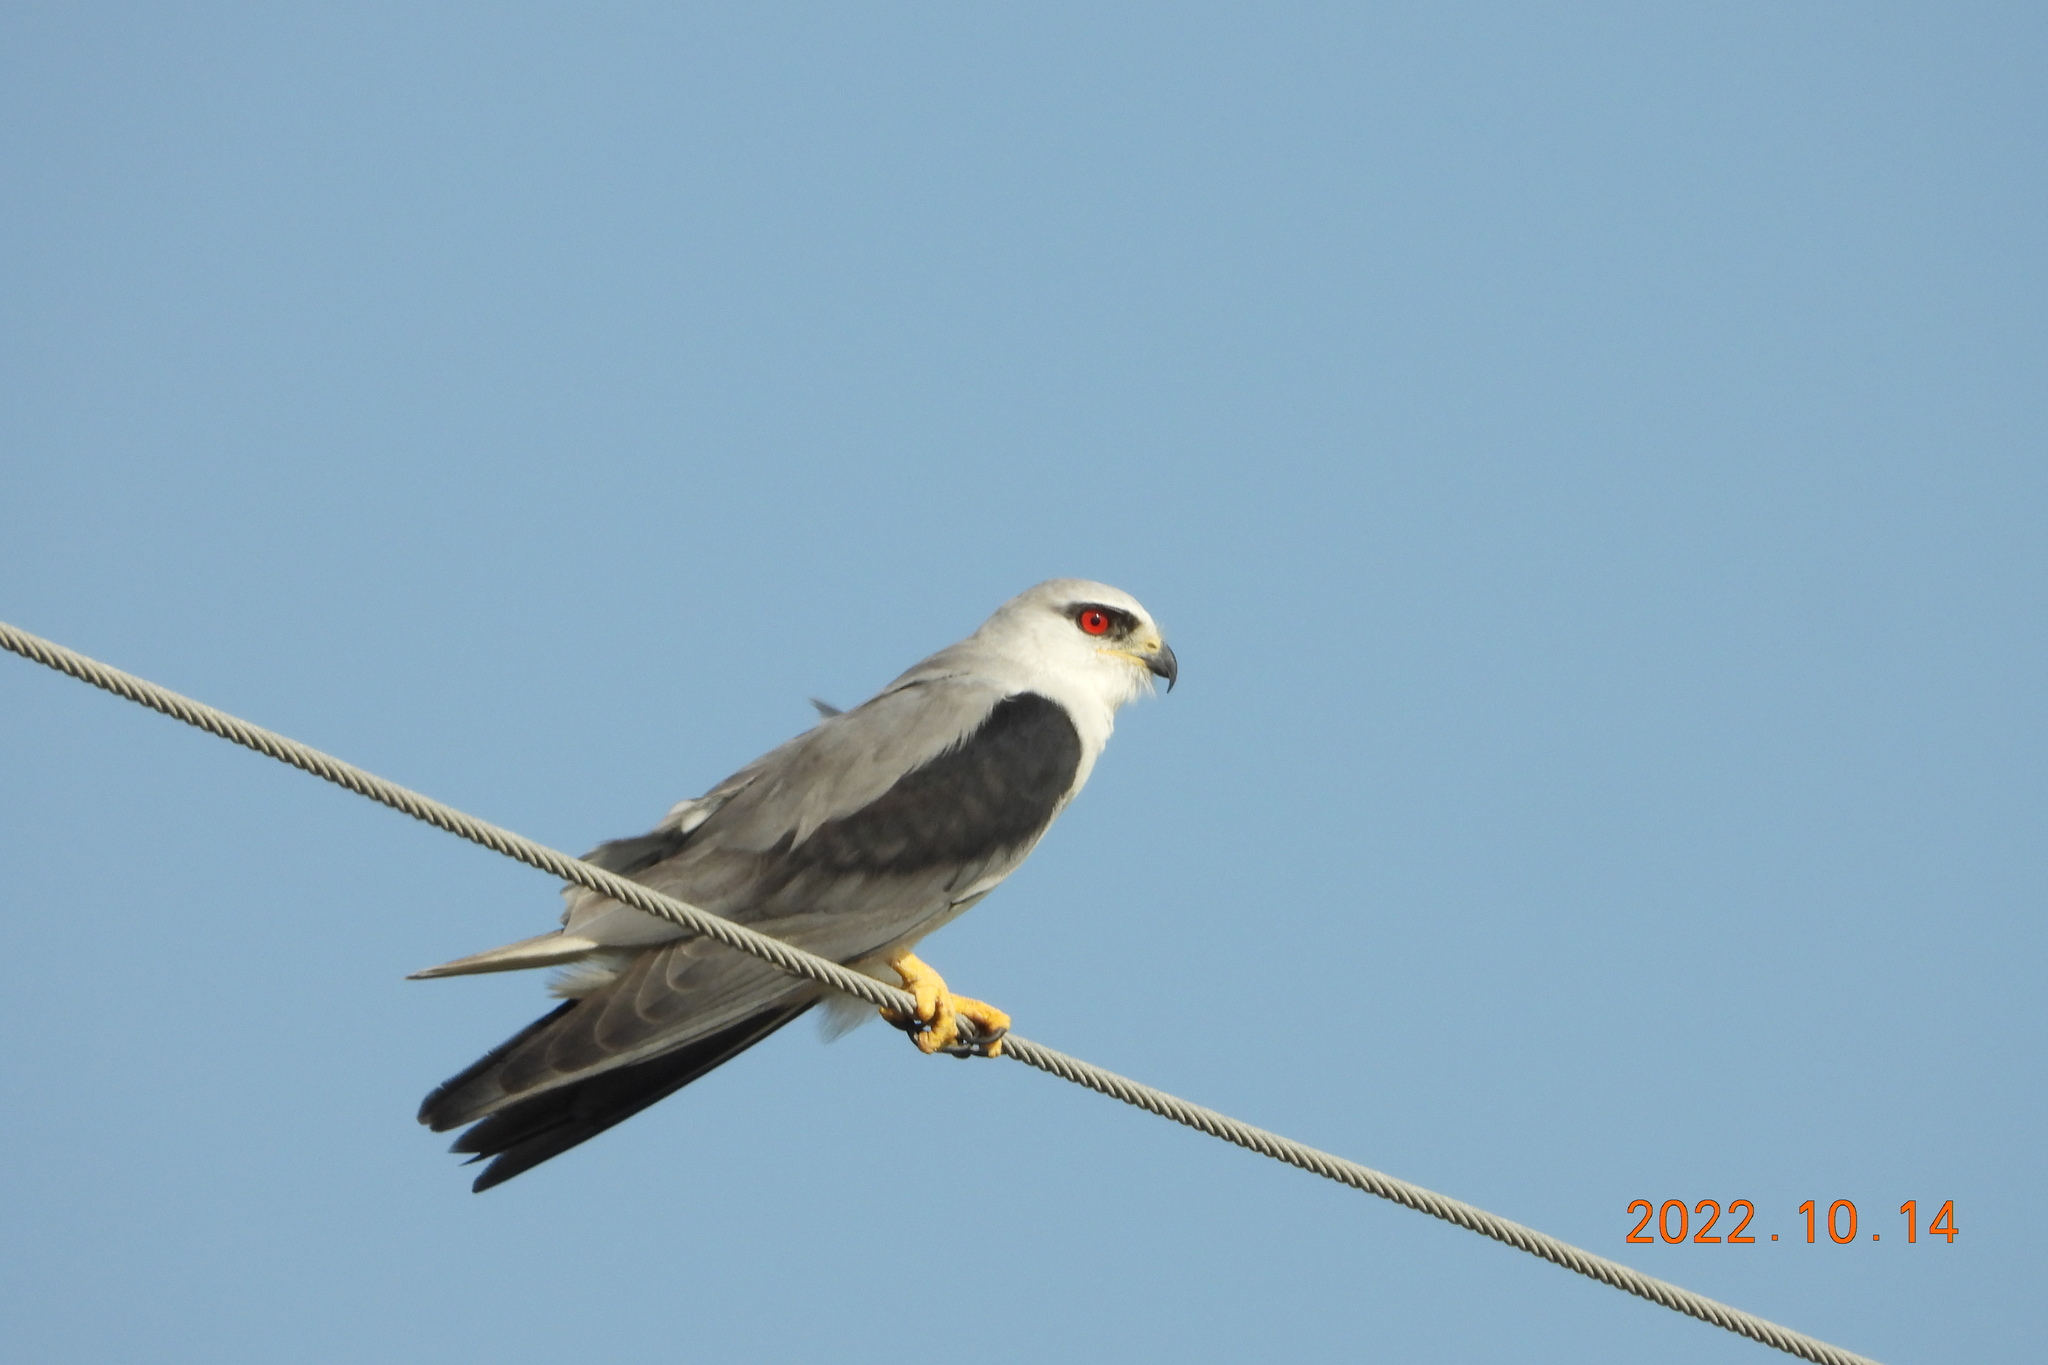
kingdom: Animalia
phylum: Chordata
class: Aves
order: Accipitriformes
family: Accipitridae
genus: Elanus
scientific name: Elanus caeruleus
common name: Black-winged kite
